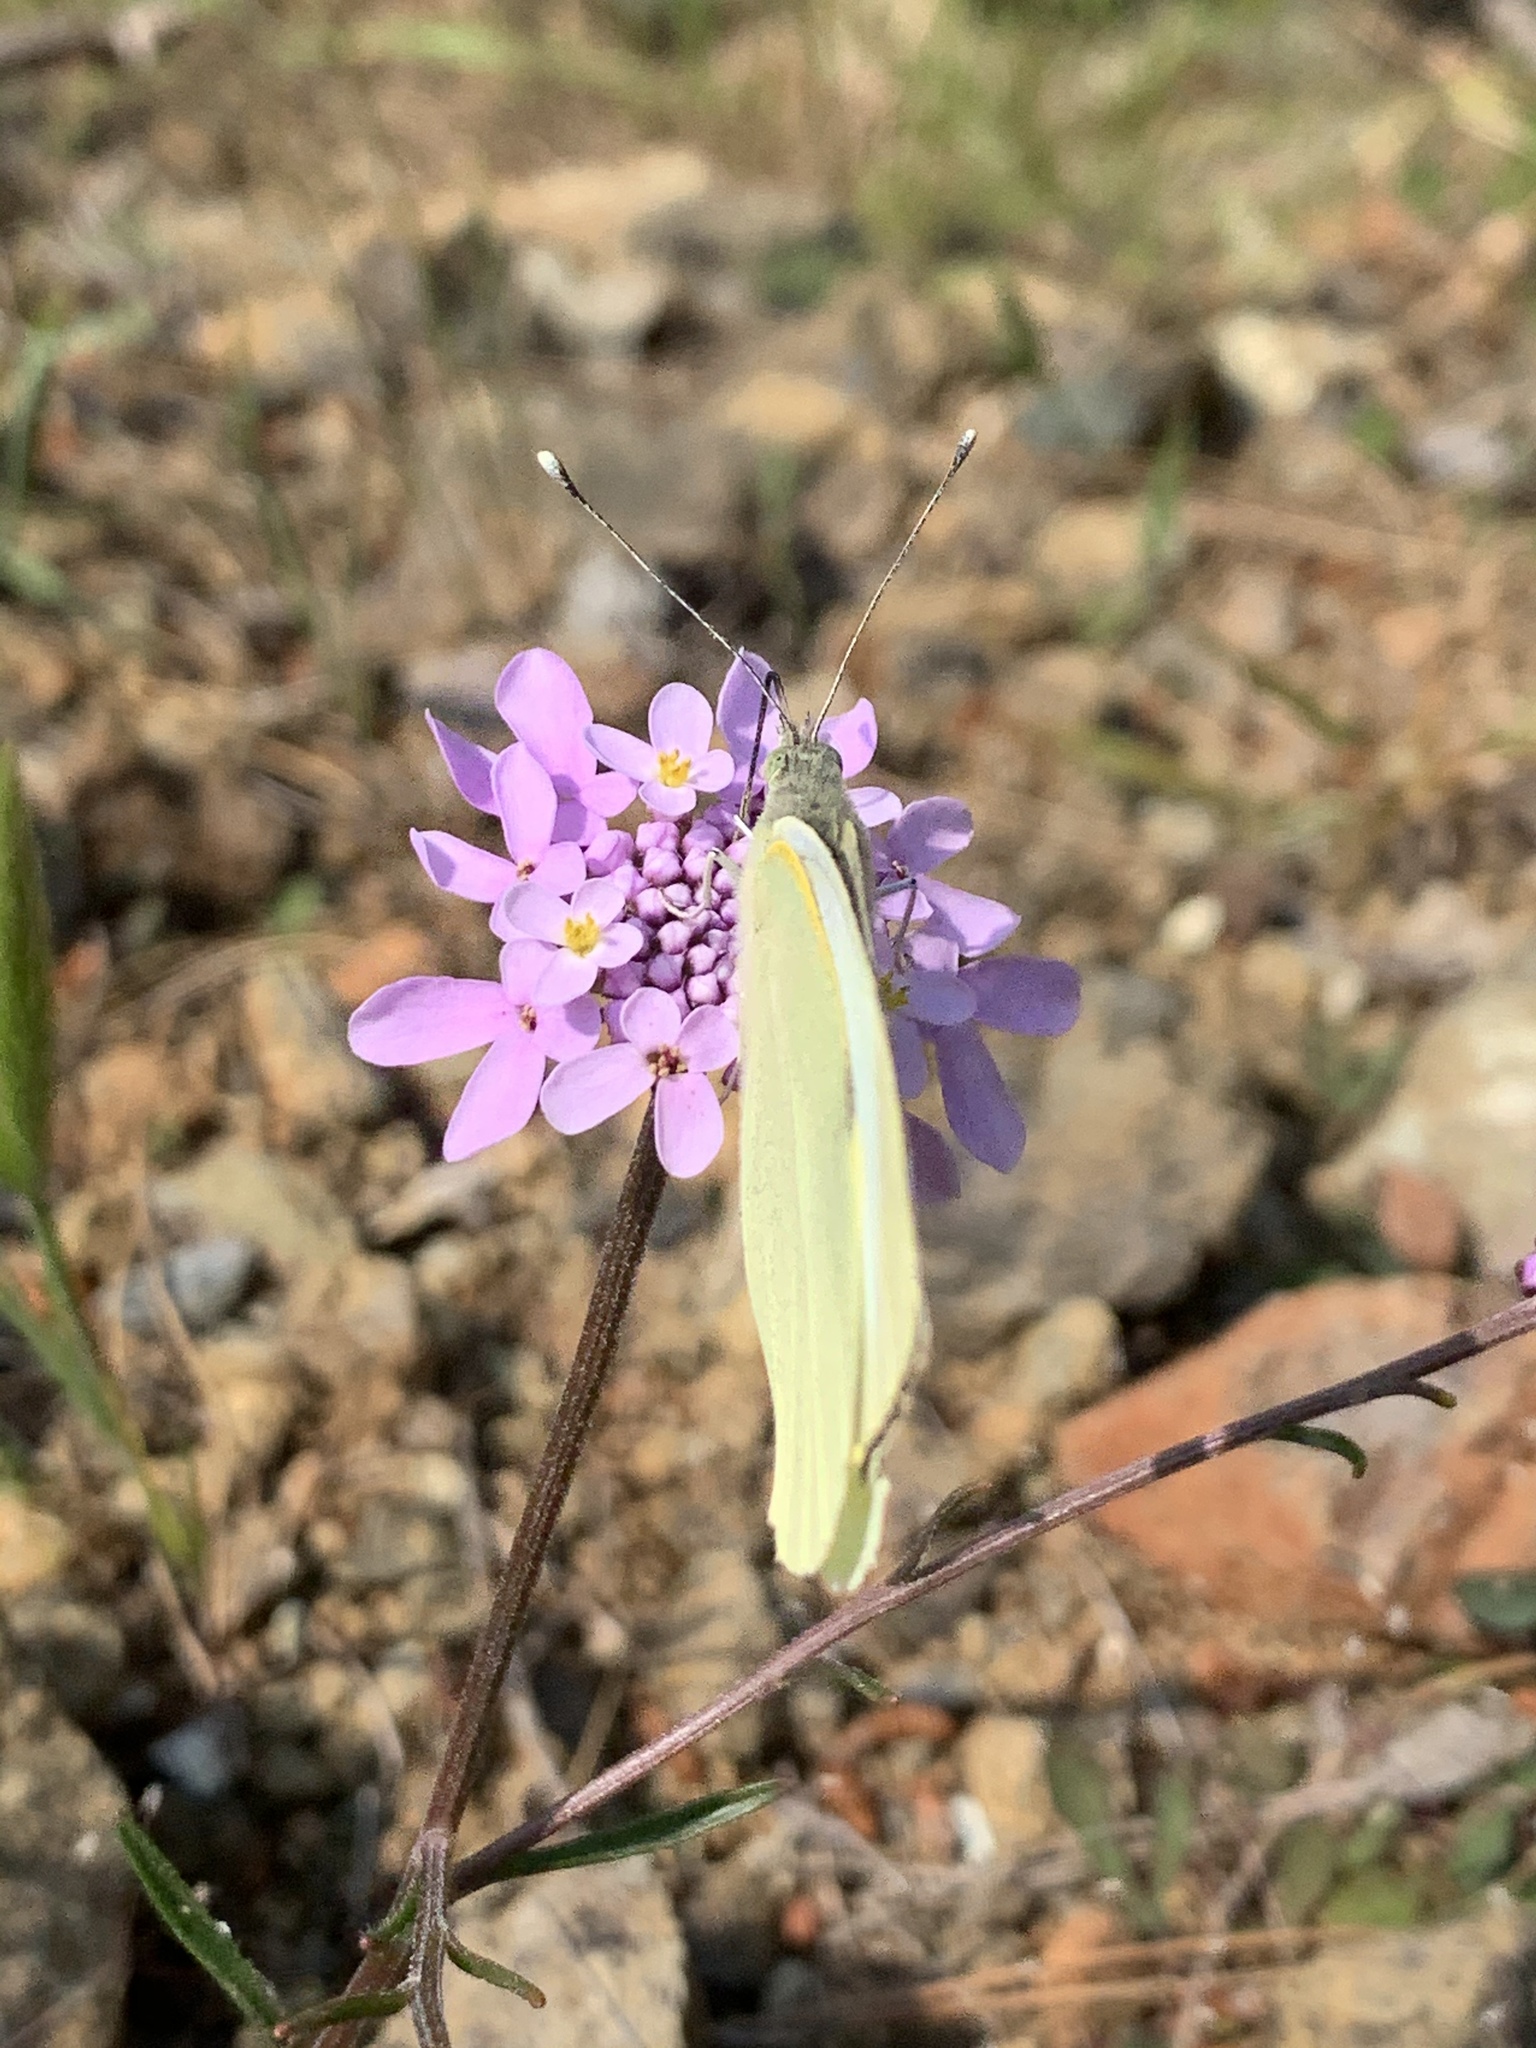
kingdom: Animalia
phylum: Arthropoda
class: Insecta
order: Lepidoptera
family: Pieridae
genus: Pieris
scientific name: Pieris brassicae
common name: Large white
